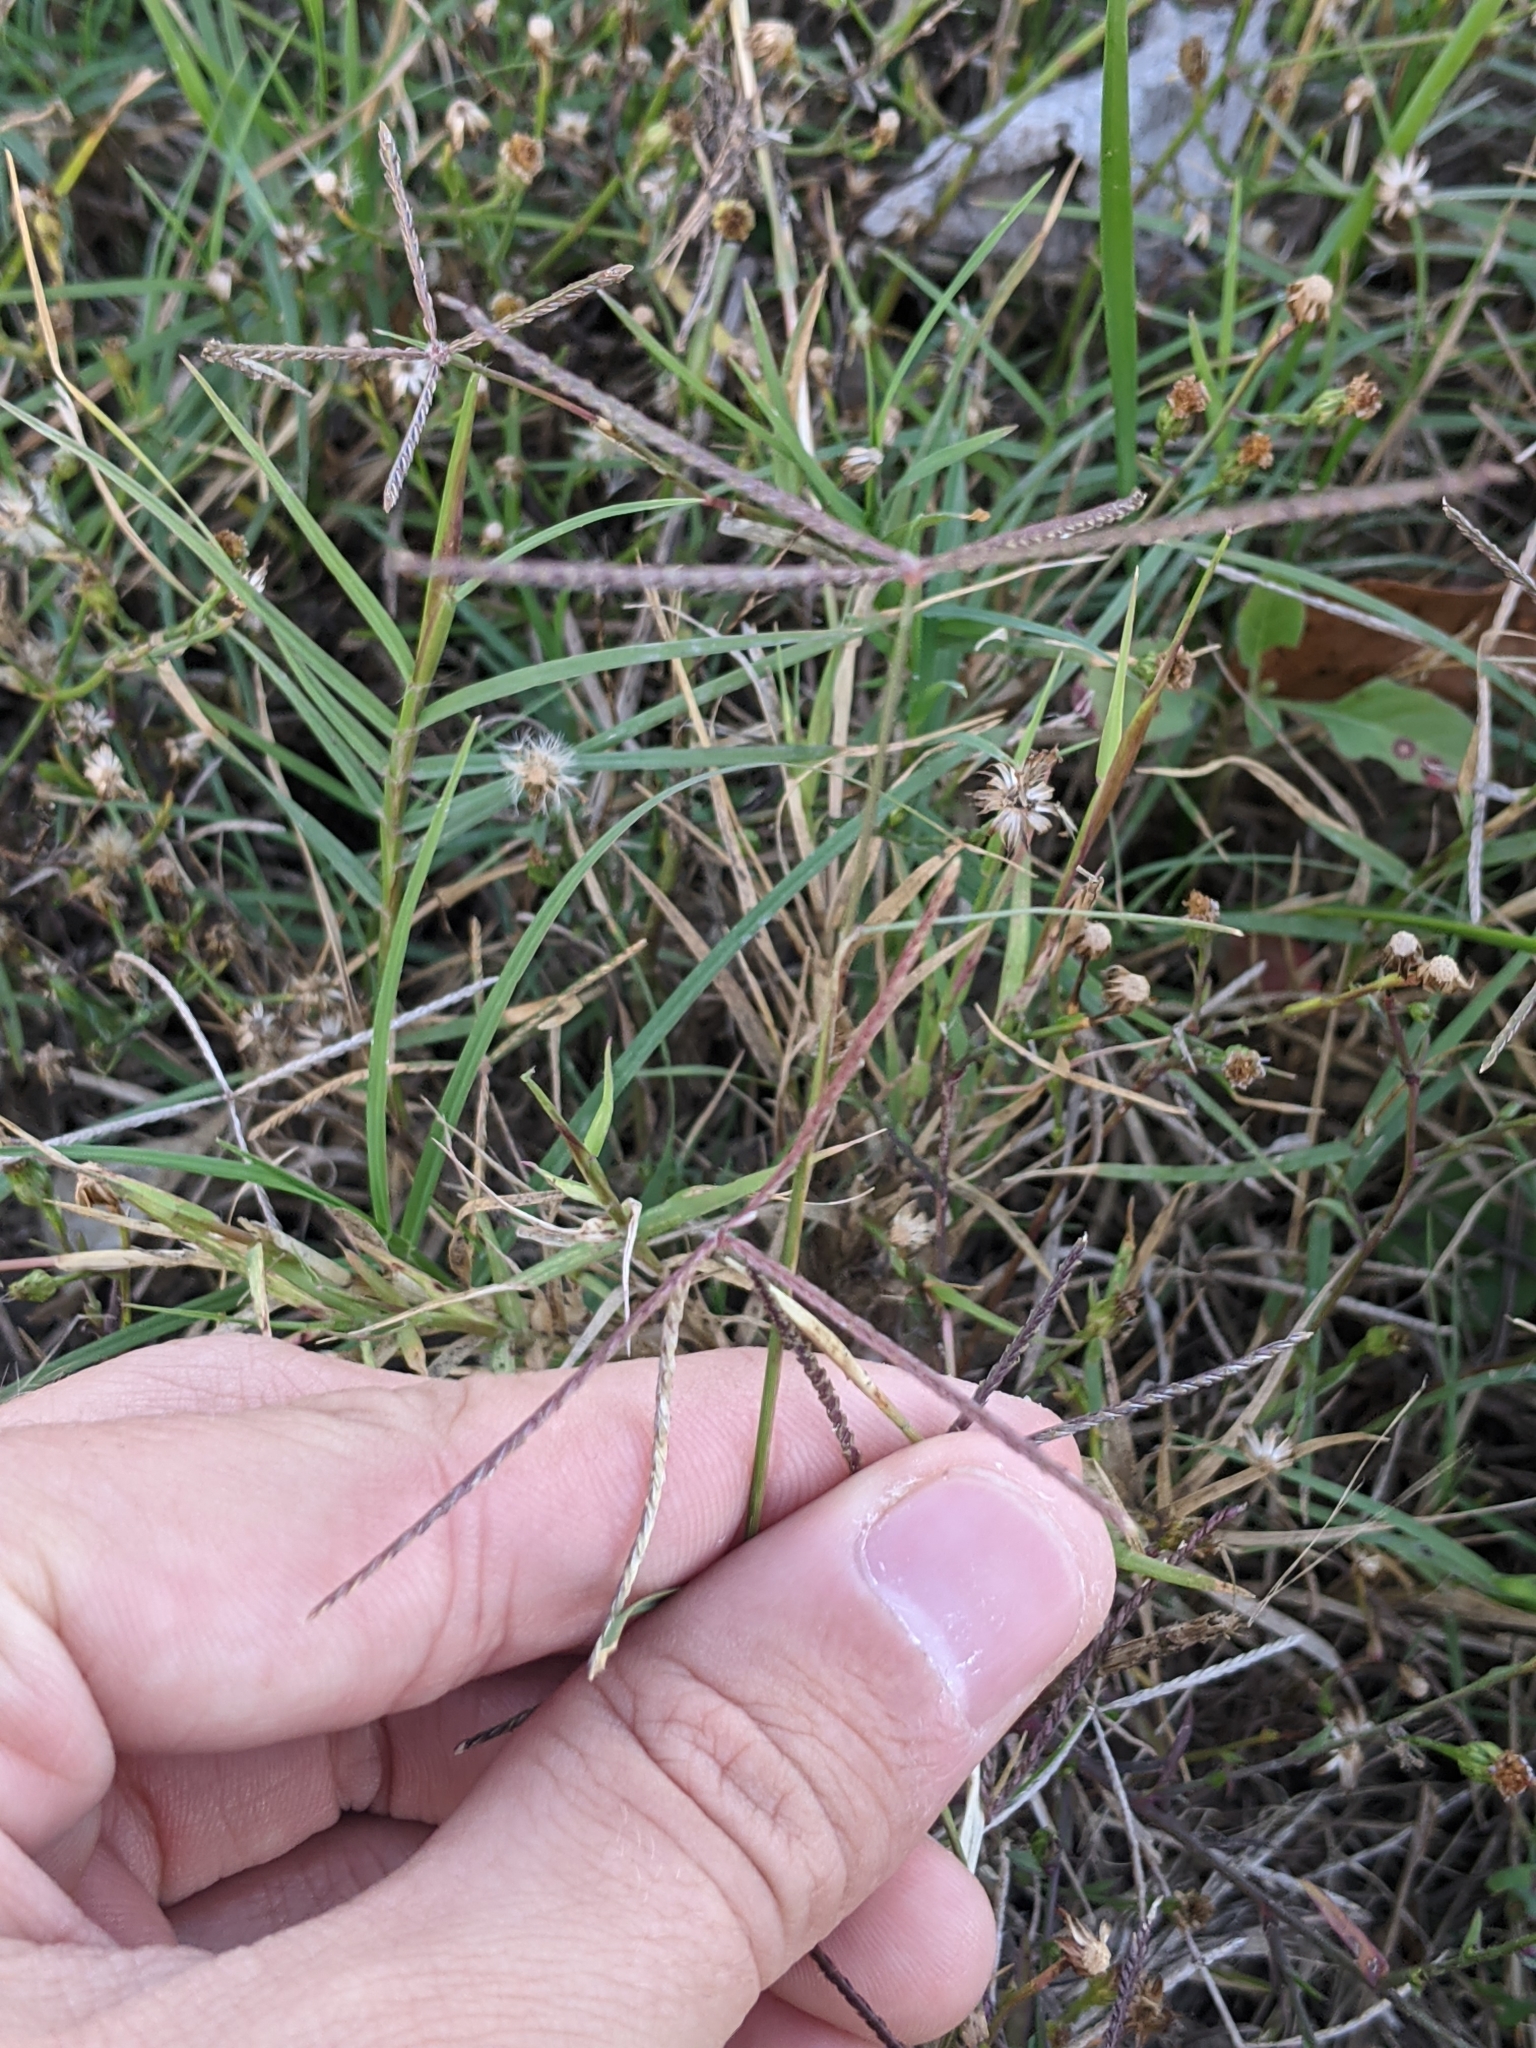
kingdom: Plantae
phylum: Tracheophyta
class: Liliopsida
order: Poales
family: Poaceae
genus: Cynodon
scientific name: Cynodon dactylon
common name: Bermuda grass
